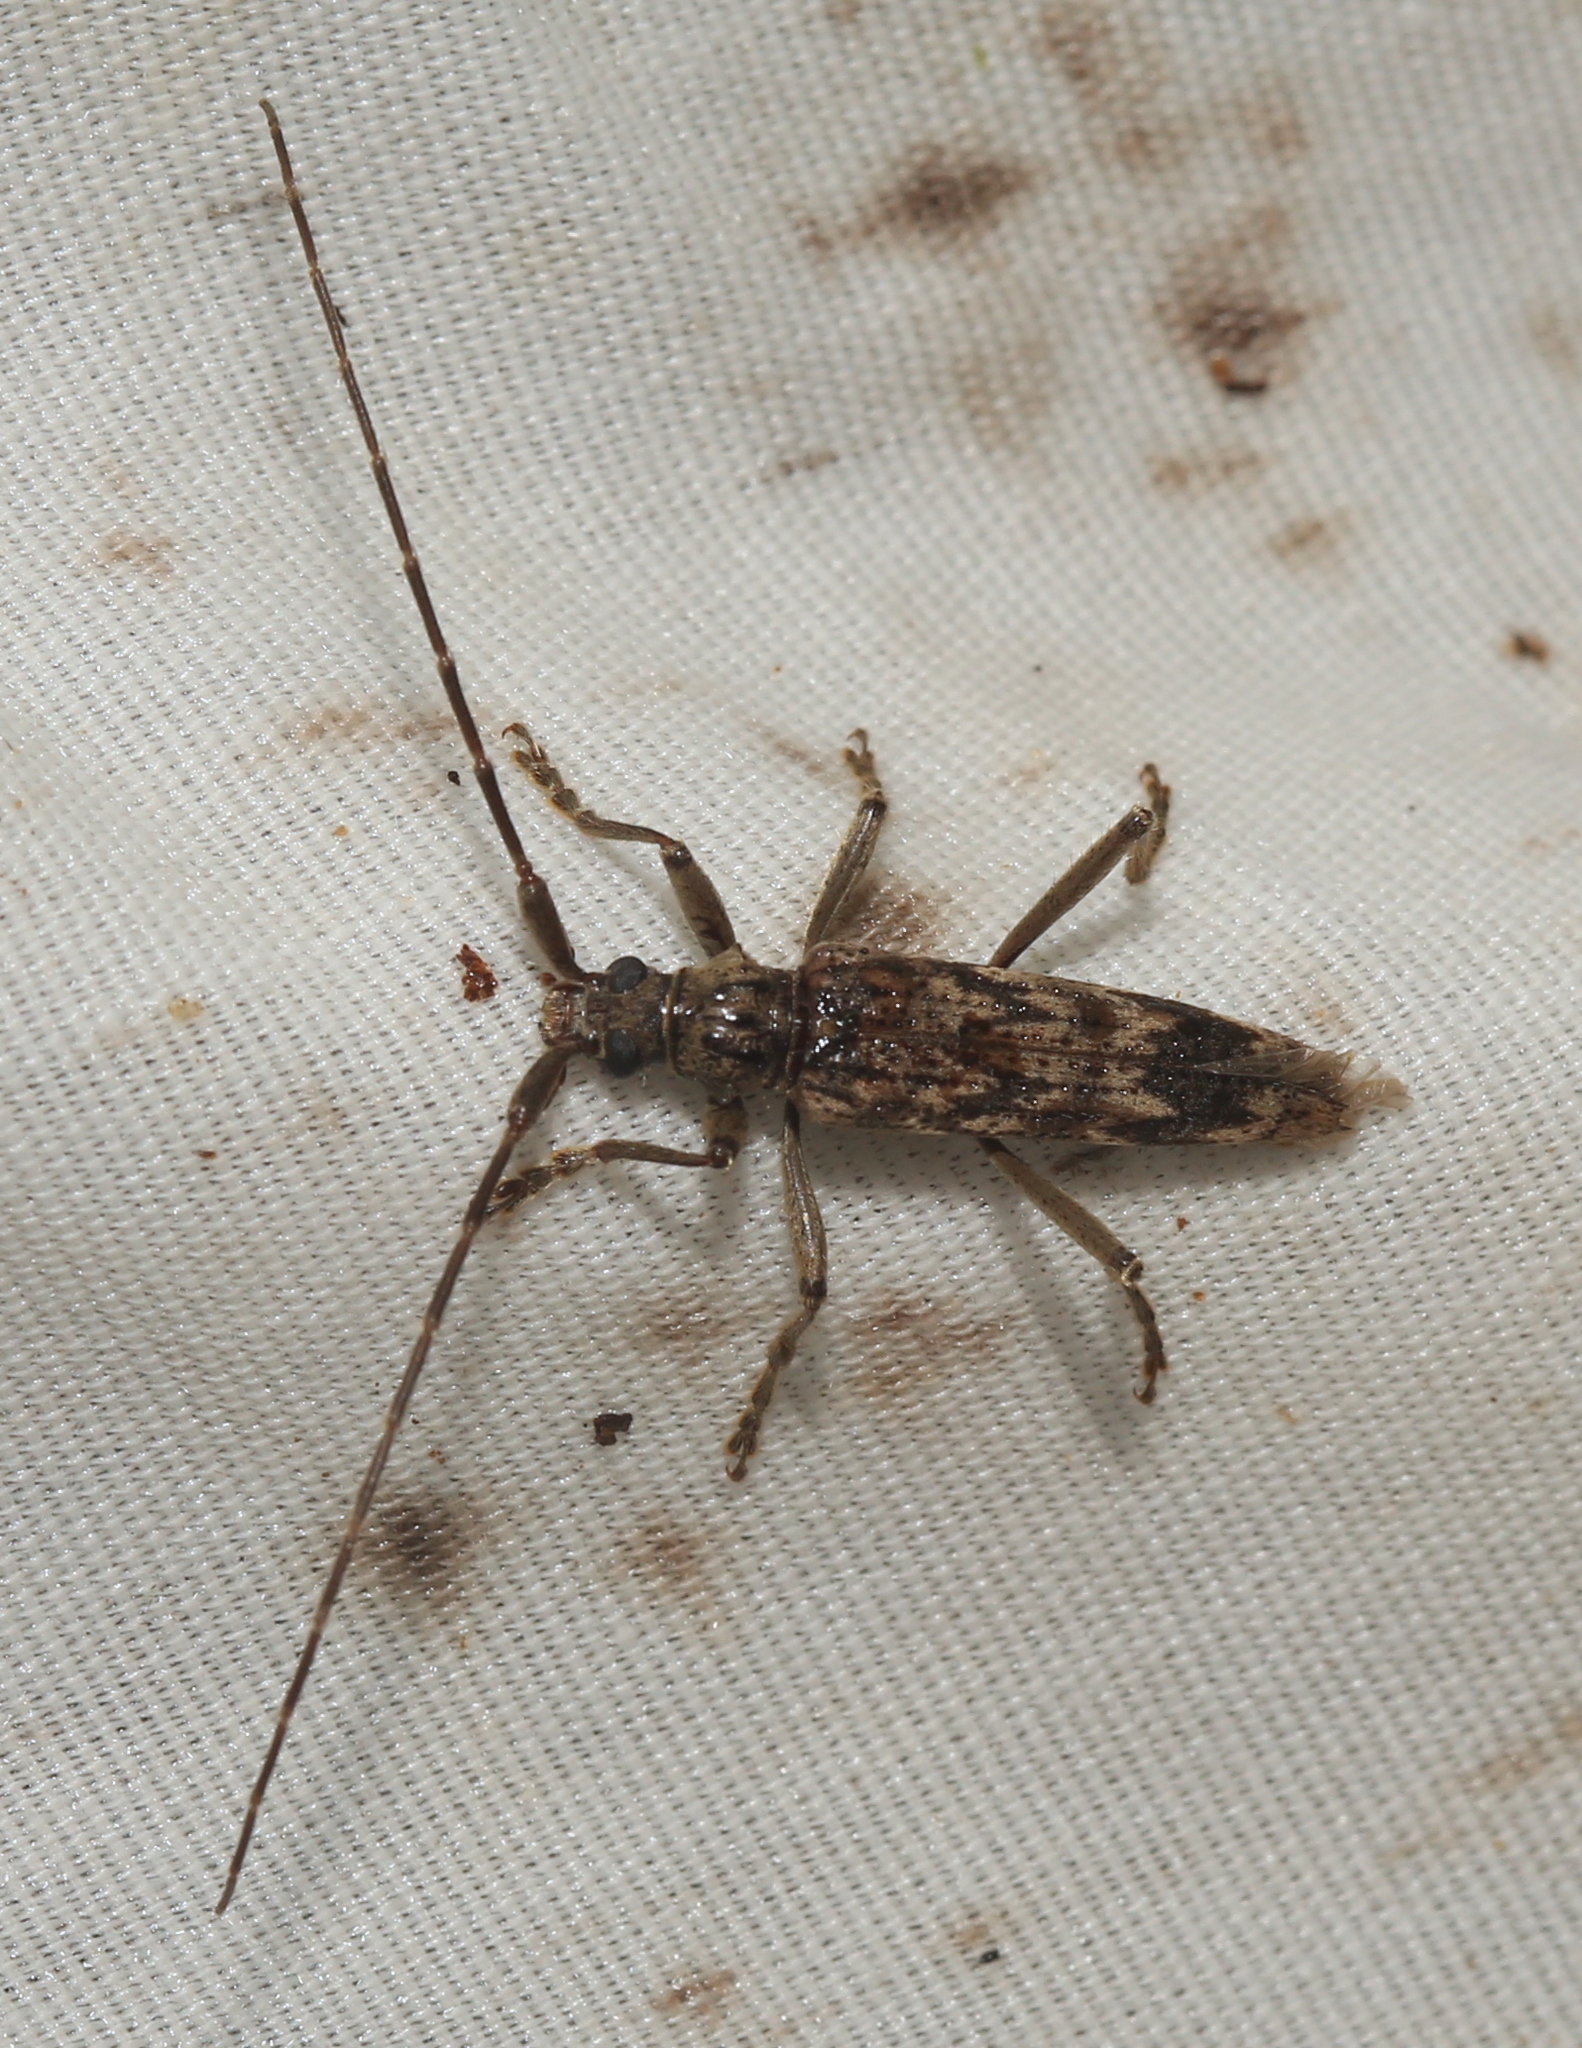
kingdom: Animalia
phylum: Arthropoda
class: Insecta
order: Coleoptera
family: Cerambycidae
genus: Elytrimitatrix
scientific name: Elytrimitatrix undata
